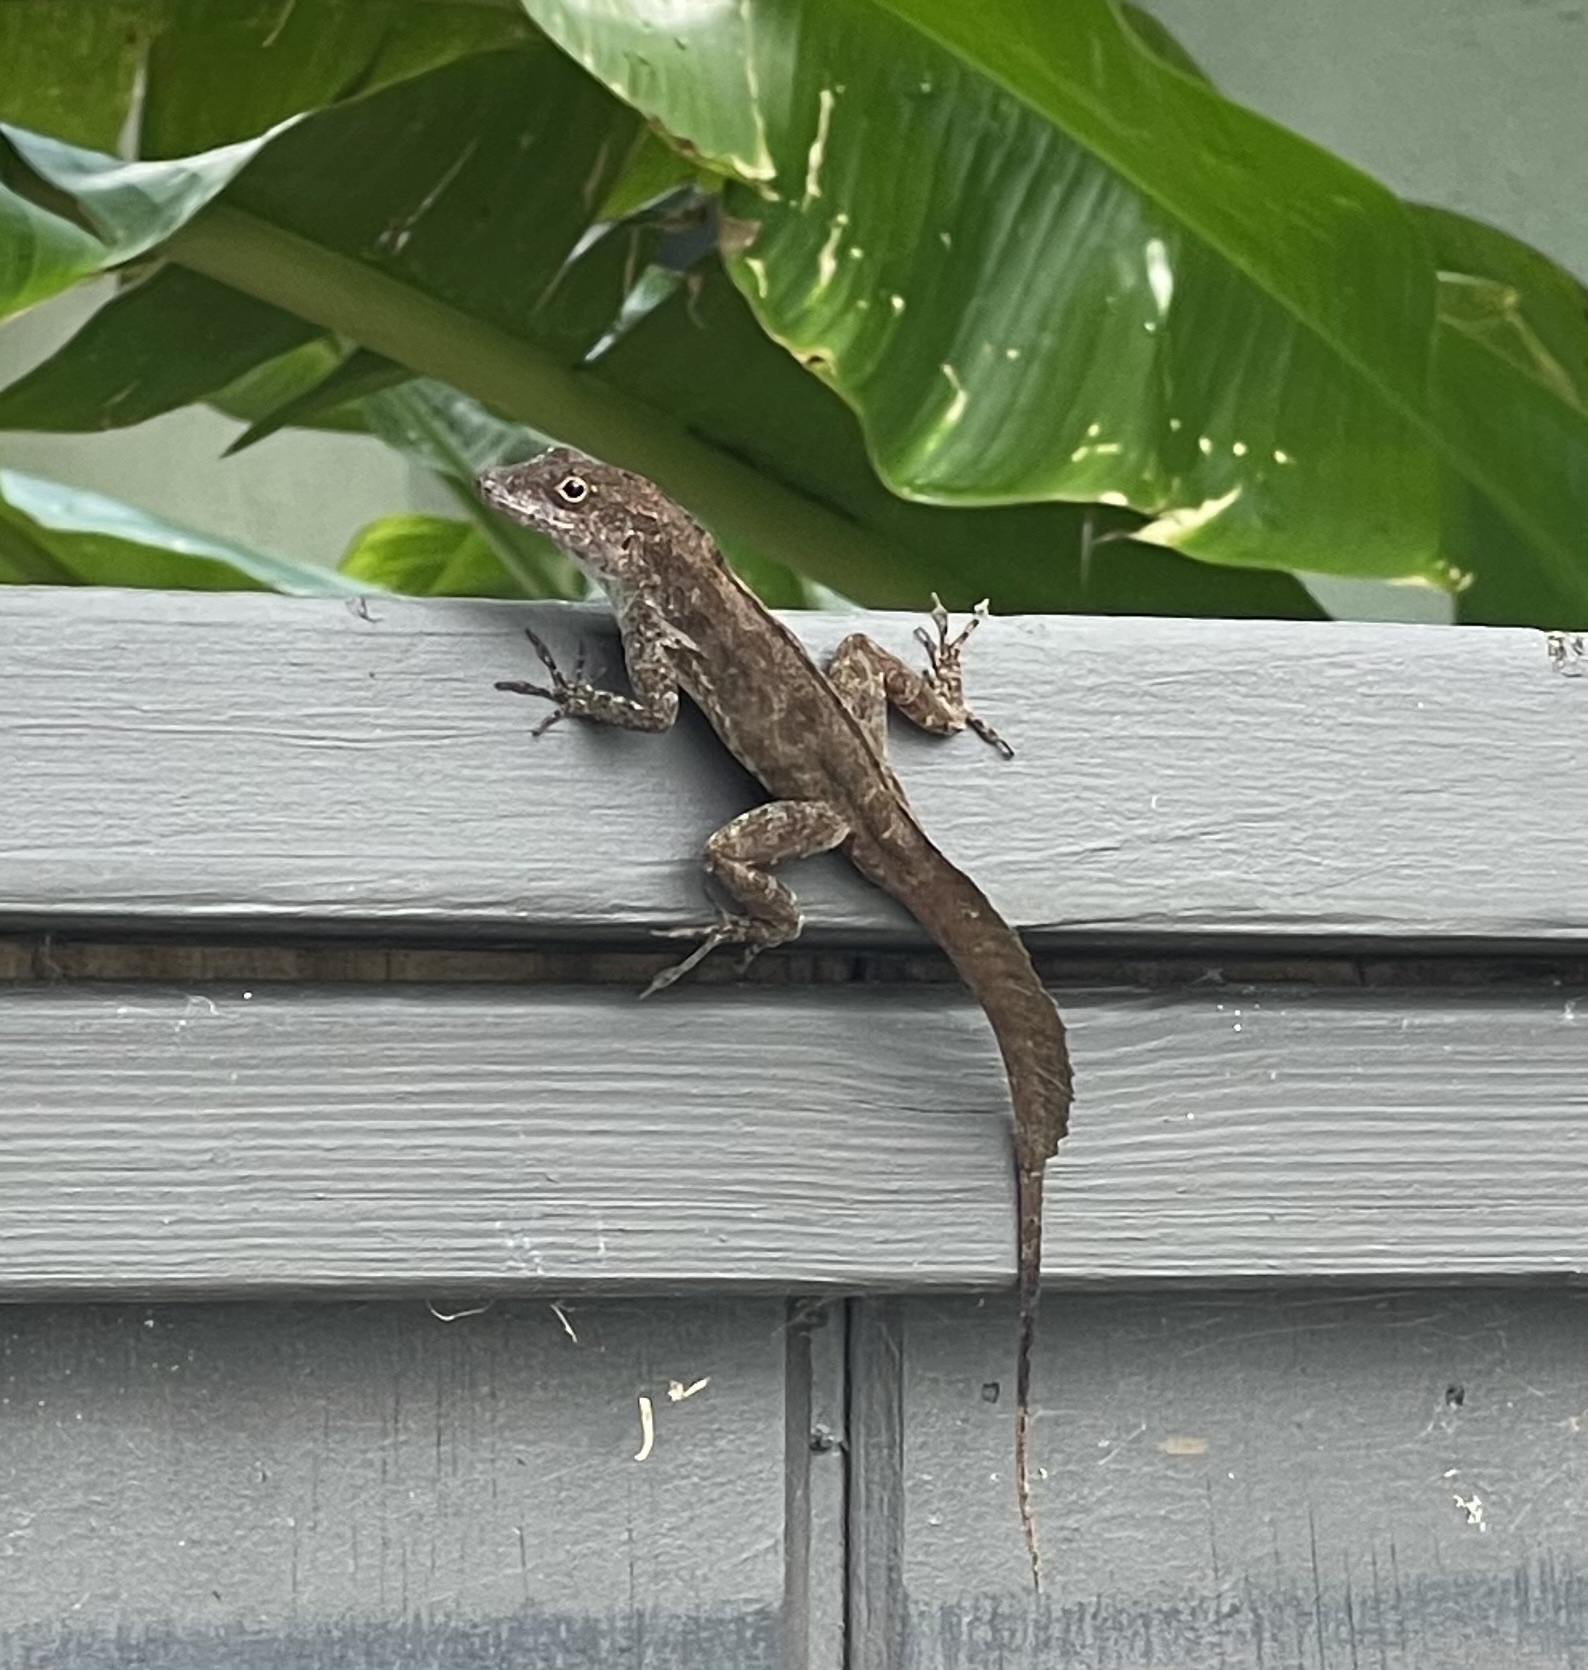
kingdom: Animalia
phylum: Chordata
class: Squamata
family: Dactyloidae
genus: Anolis
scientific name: Anolis cristatellus
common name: Crested anole
